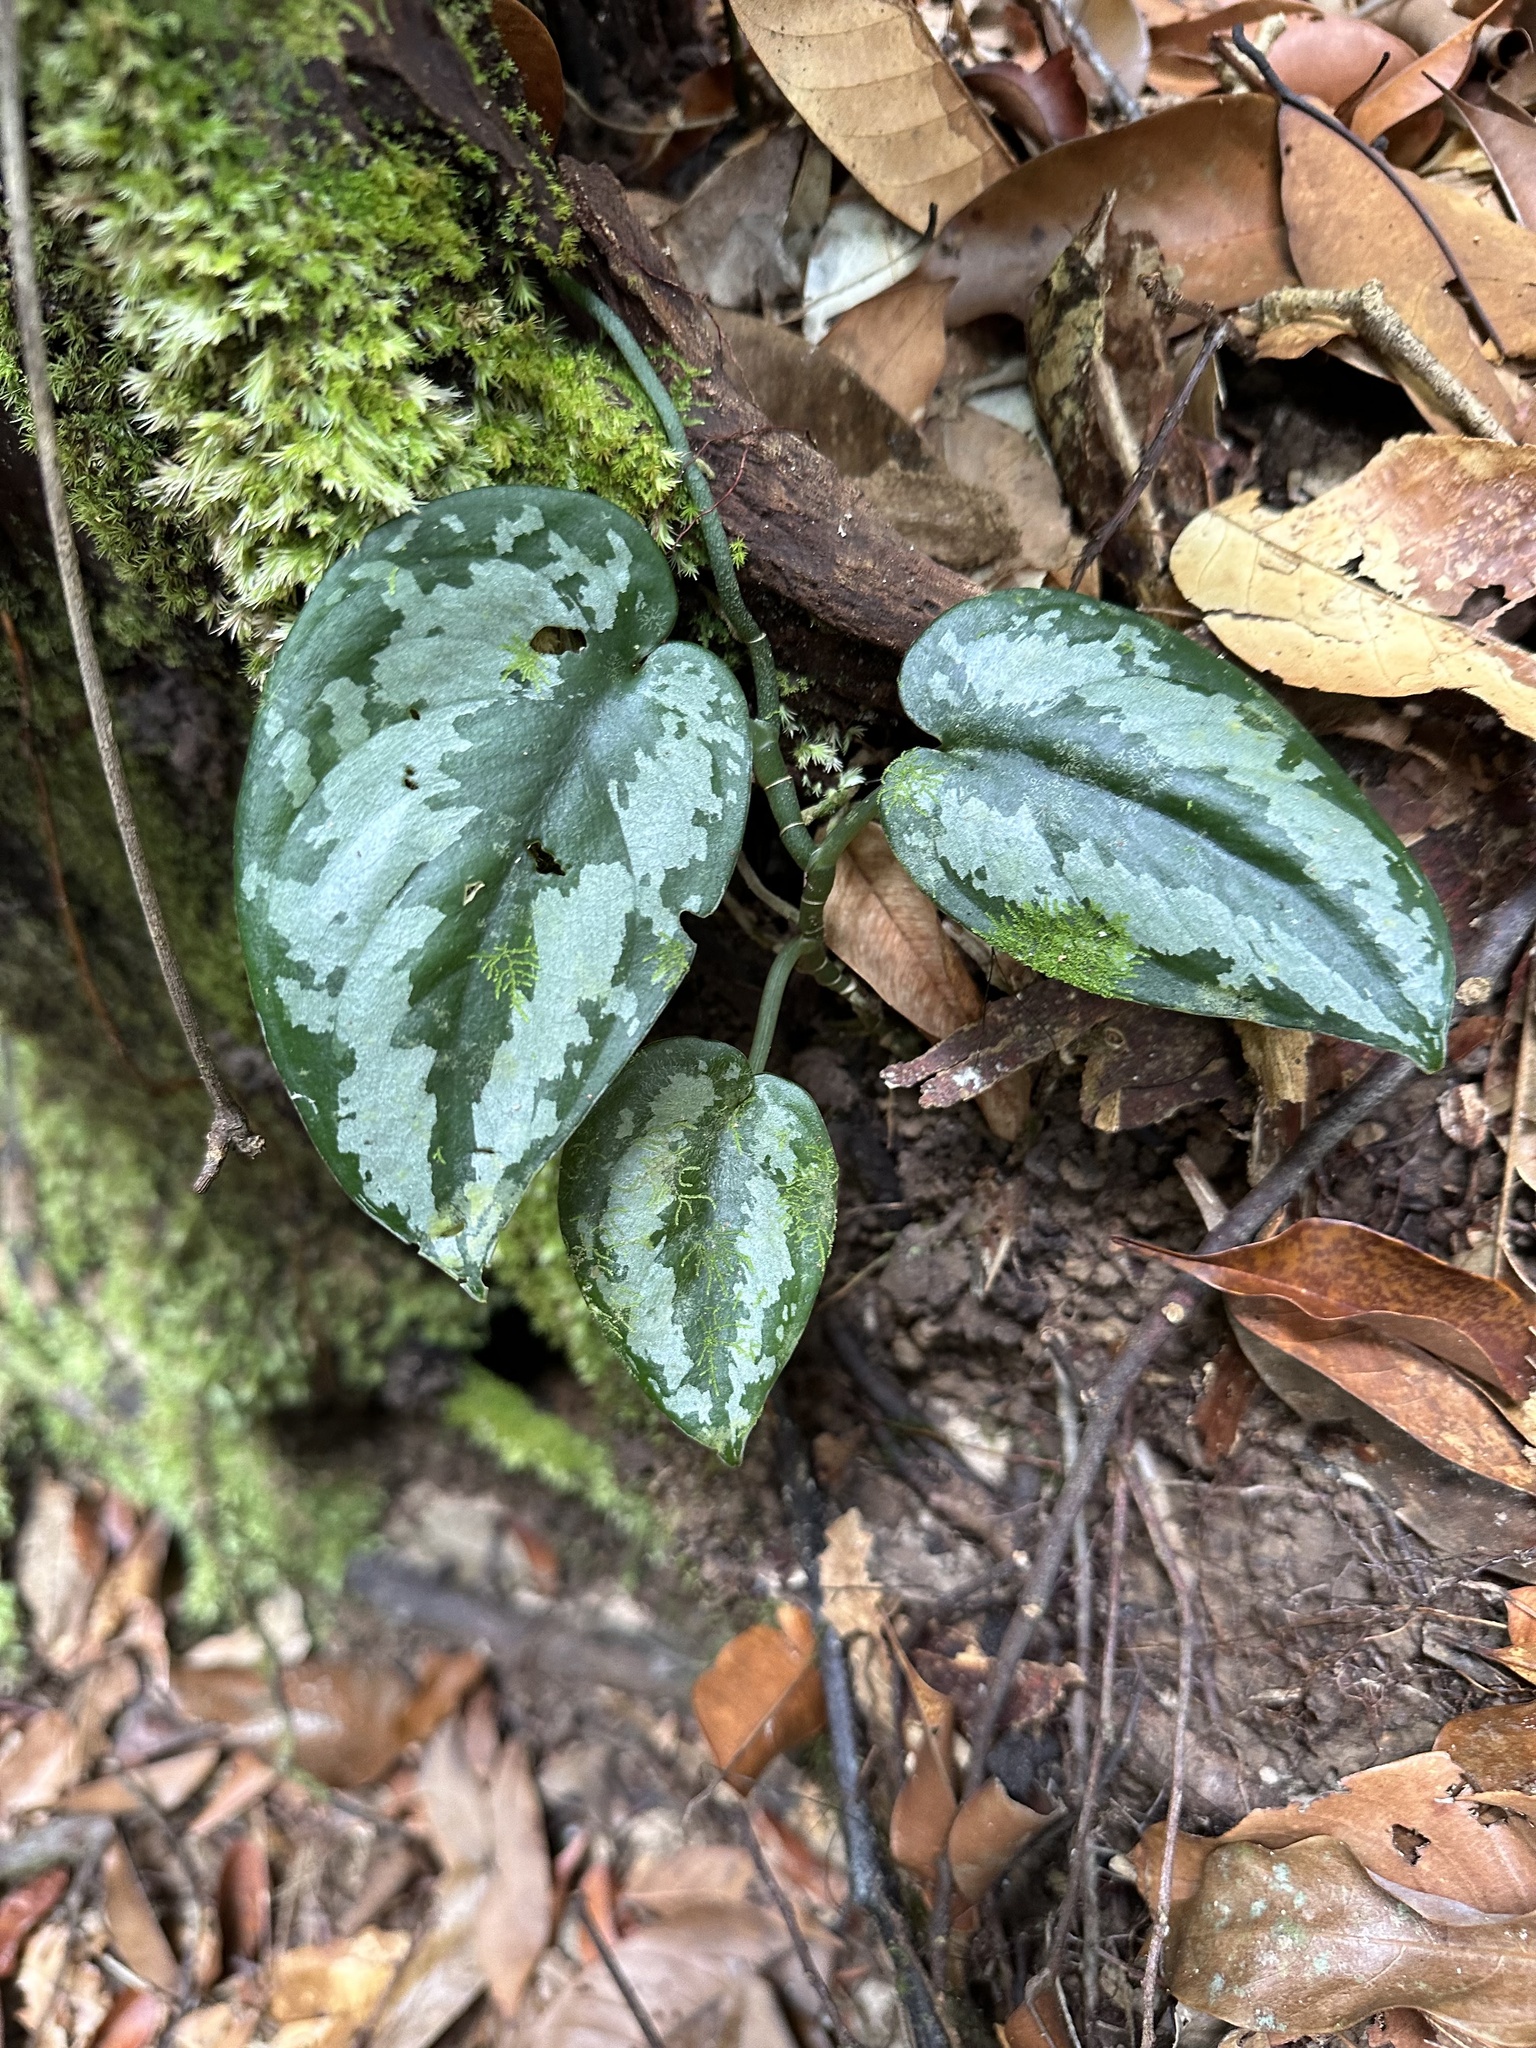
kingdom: Plantae
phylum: Tracheophyta
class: Liliopsida
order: Alismatales
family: Araceae
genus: Scindapsus
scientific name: Scindapsus pictus
